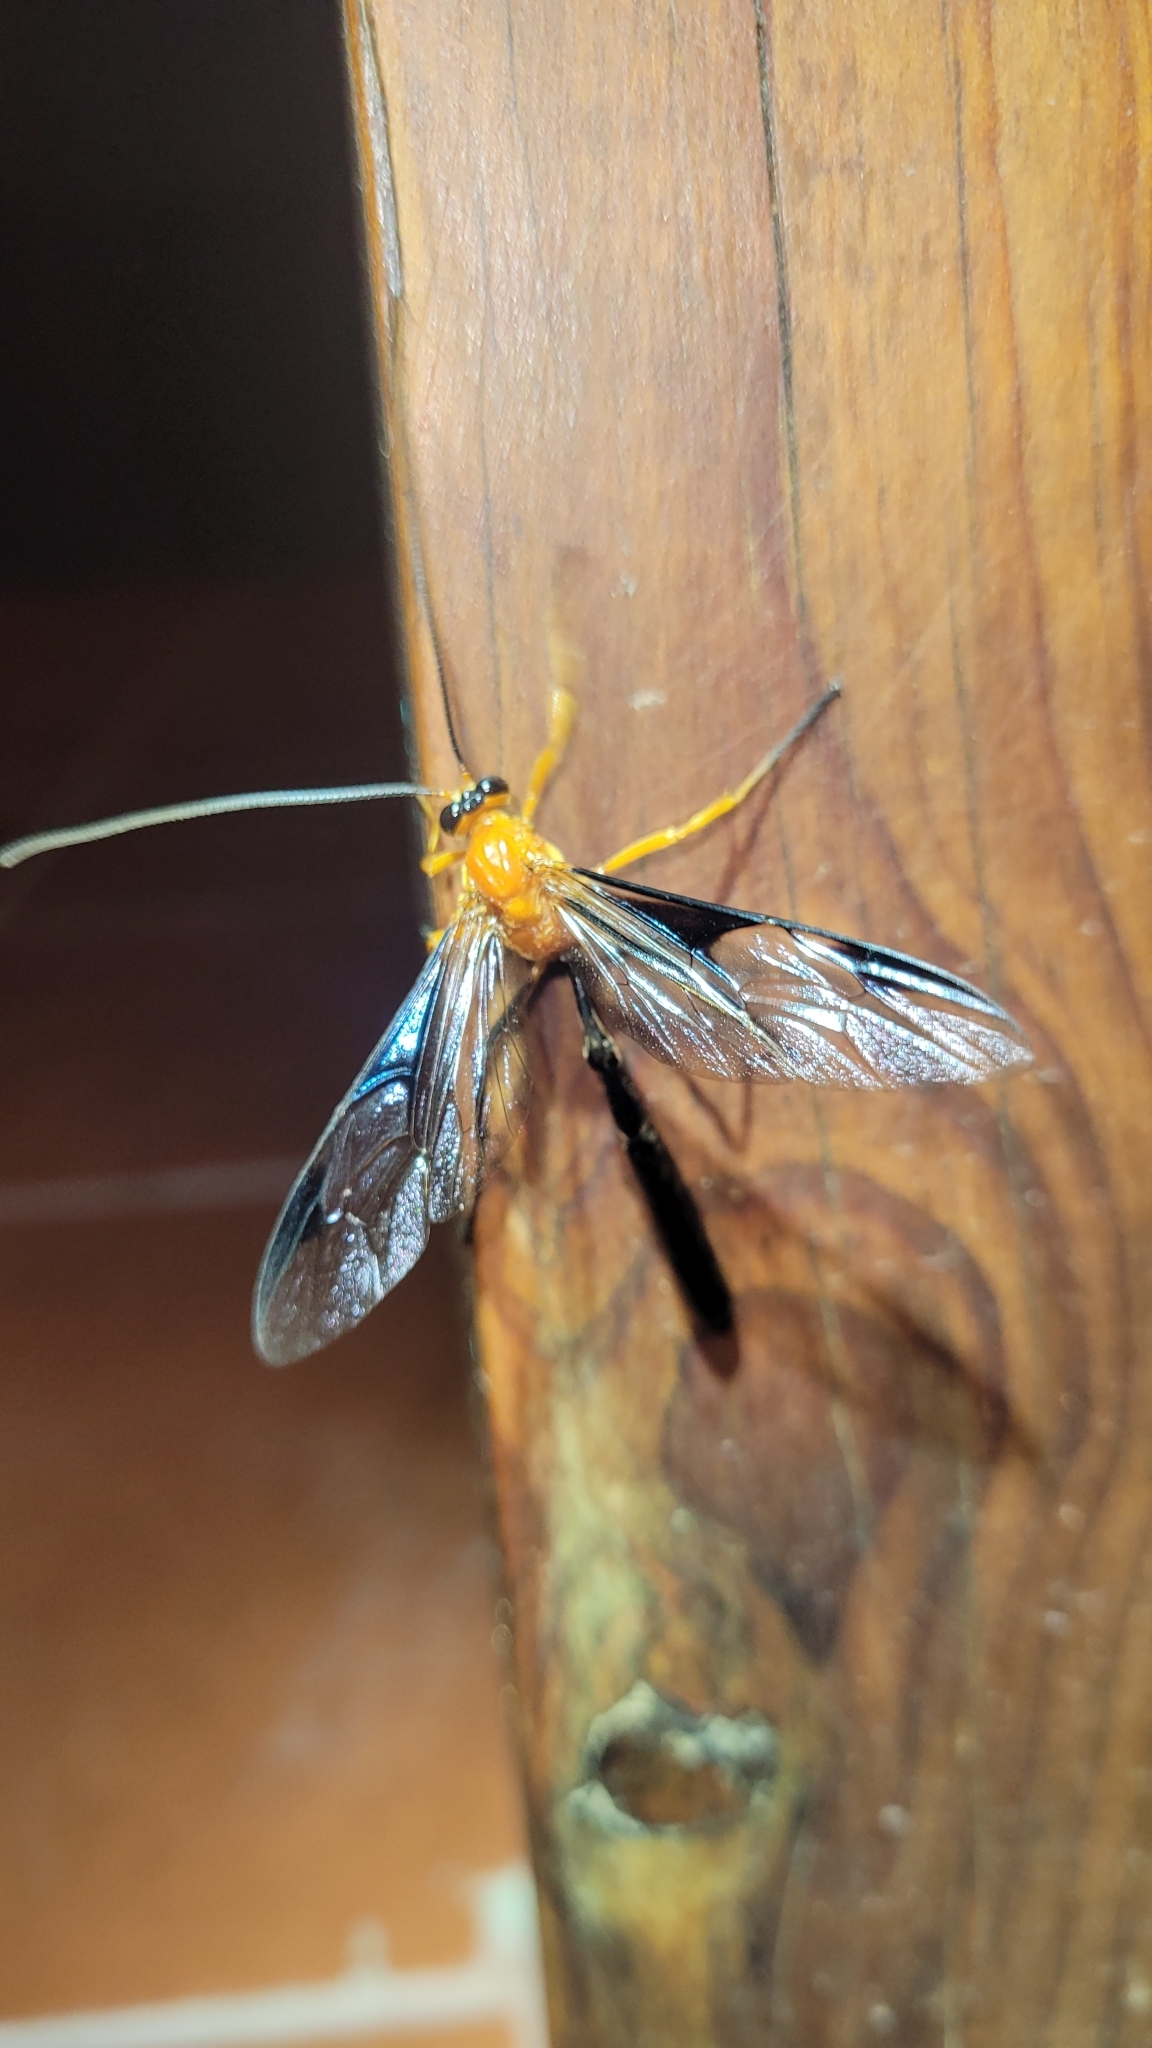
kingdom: Animalia
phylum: Arthropoda
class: Insecta
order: Hymenoptera
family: Ichneumonidae
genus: Thyreodon
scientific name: Thyreodon atriventris
